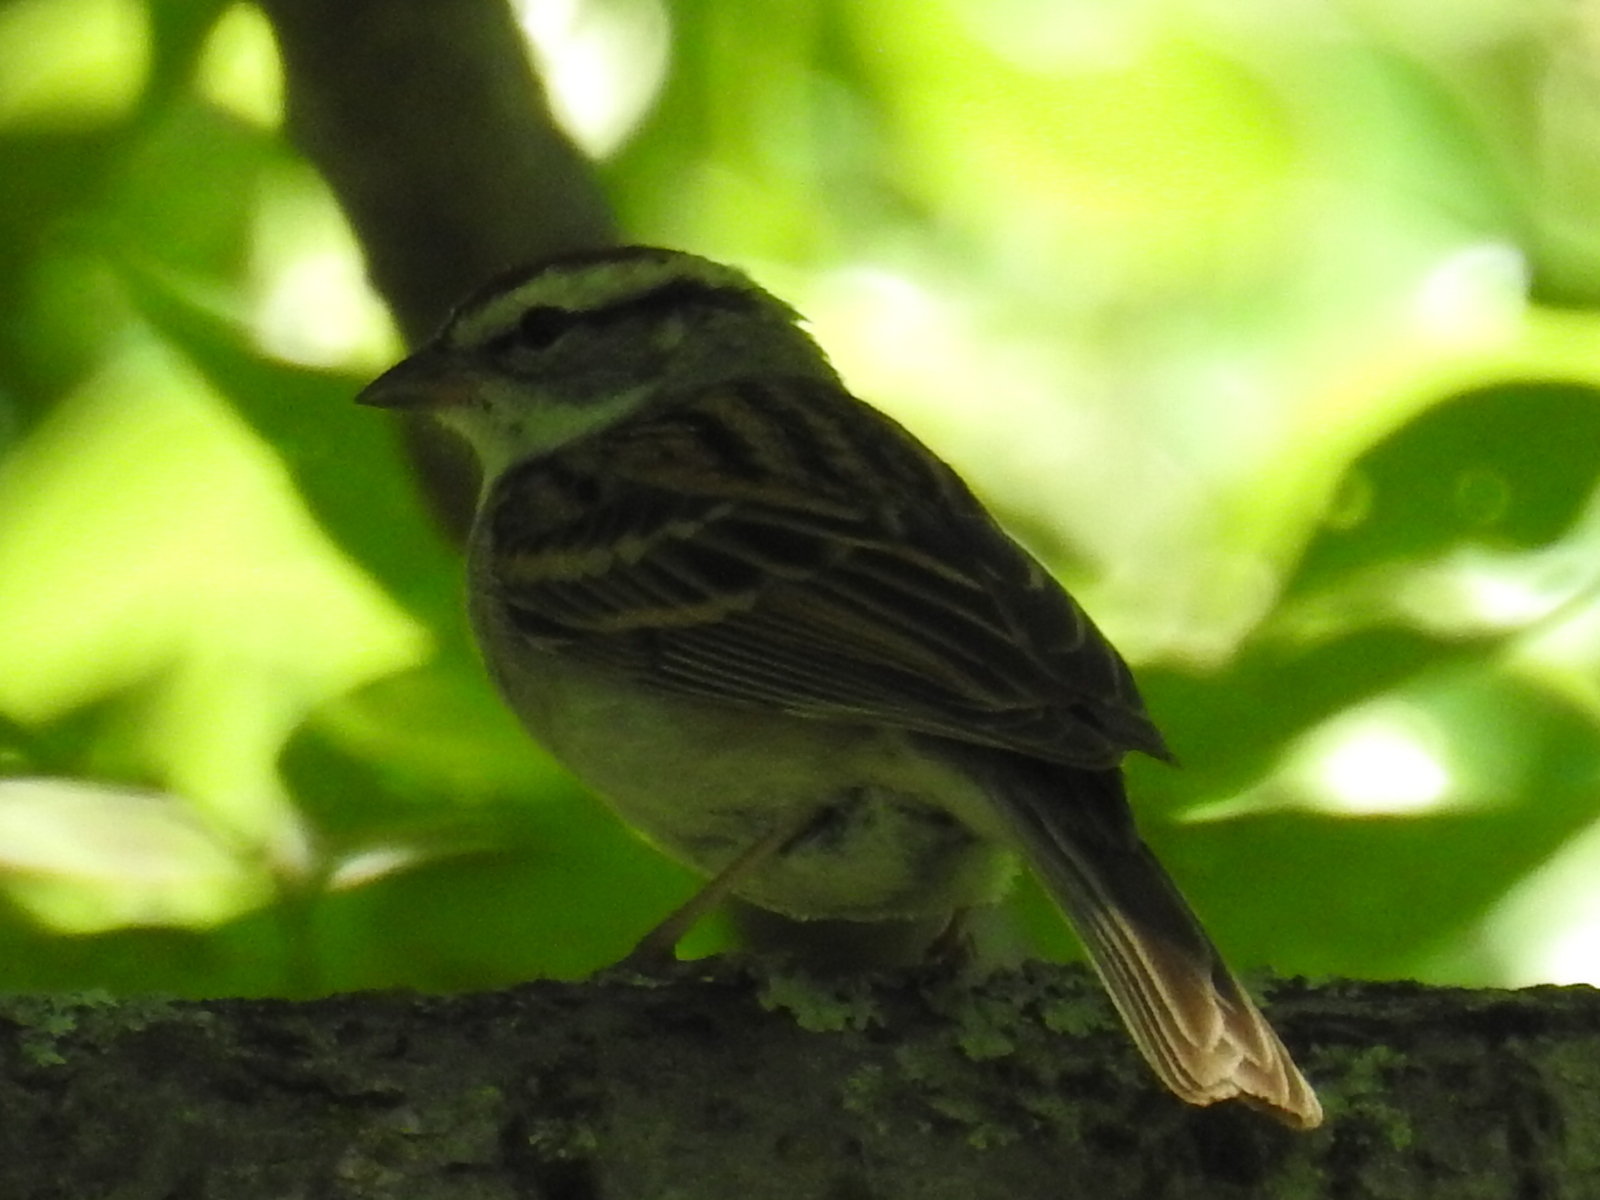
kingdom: Animalia
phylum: Chordata
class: Aves
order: Passeriformes
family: Passerellidae
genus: Spizella
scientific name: Spizella passerina
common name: Chipping sparrow
